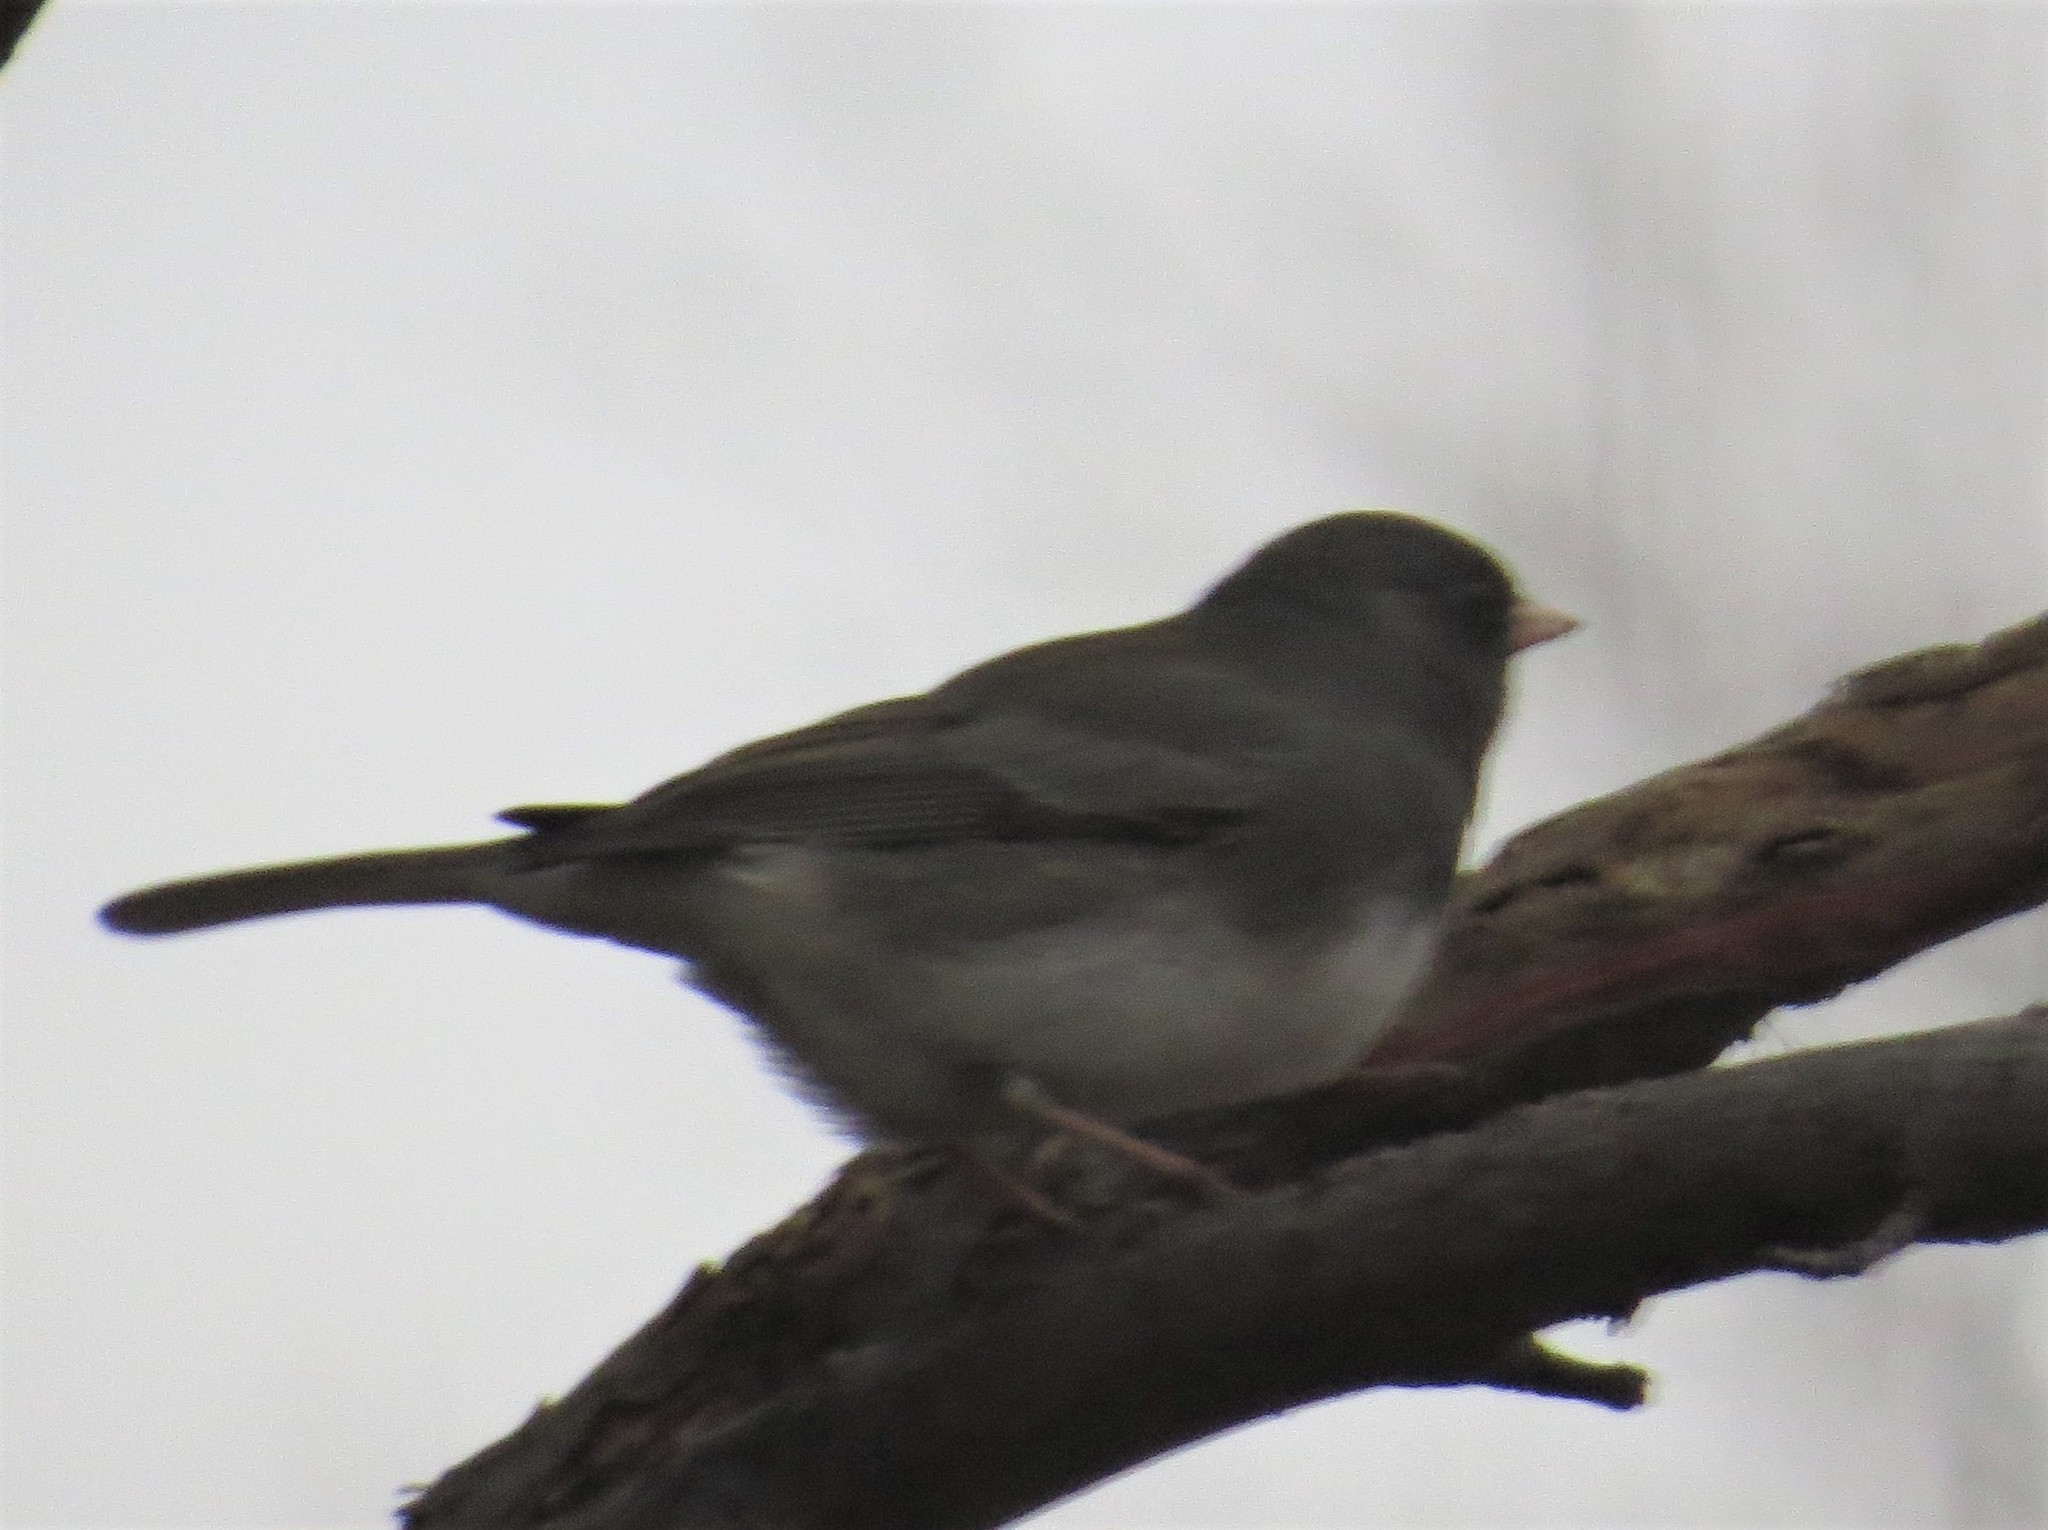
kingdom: Animalia
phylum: Chordata
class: Aves
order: Passeriformes
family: Passerellidae
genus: Junco
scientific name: Junco hyemalis
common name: Dark-eyed junco
